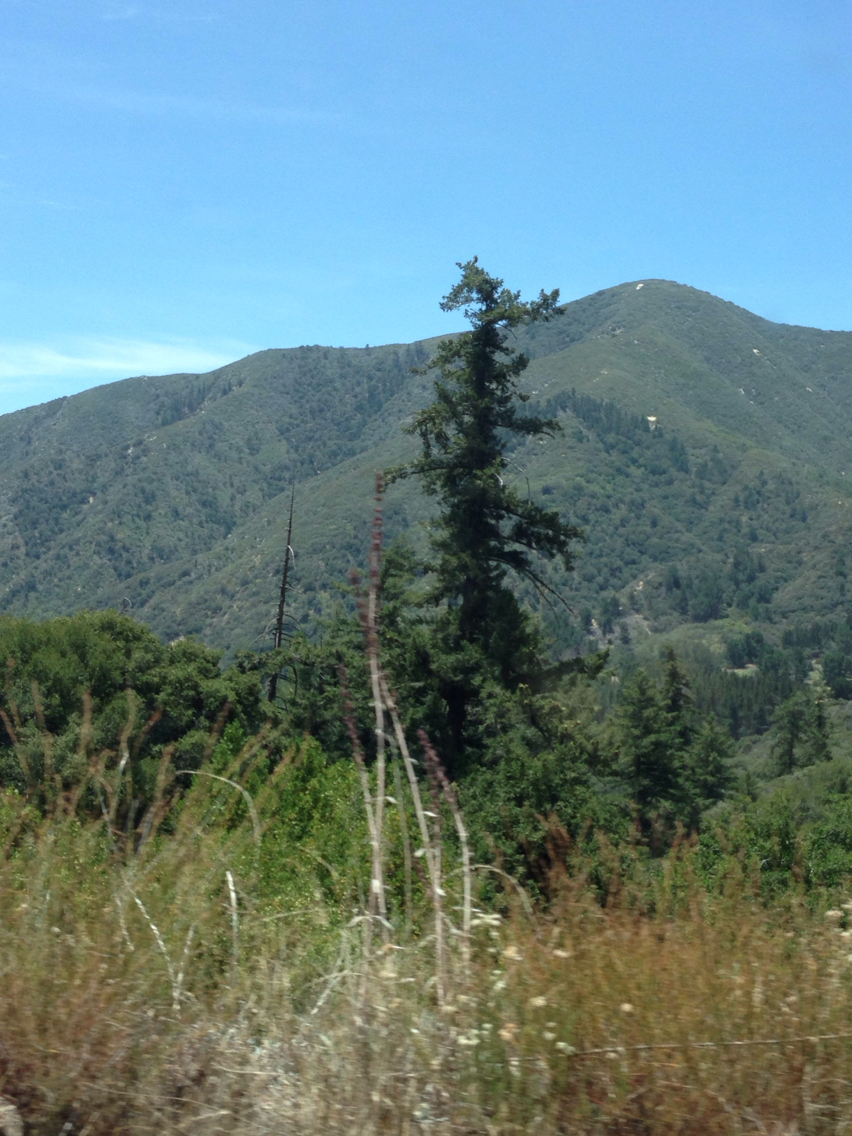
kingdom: Plantae
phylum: Tracheophyta
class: Pinopsida
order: Pinales
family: Pinaceae
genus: Pseudotsuga
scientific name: Pseudotsuga macrocarpa
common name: Big-cone douglas-fir
